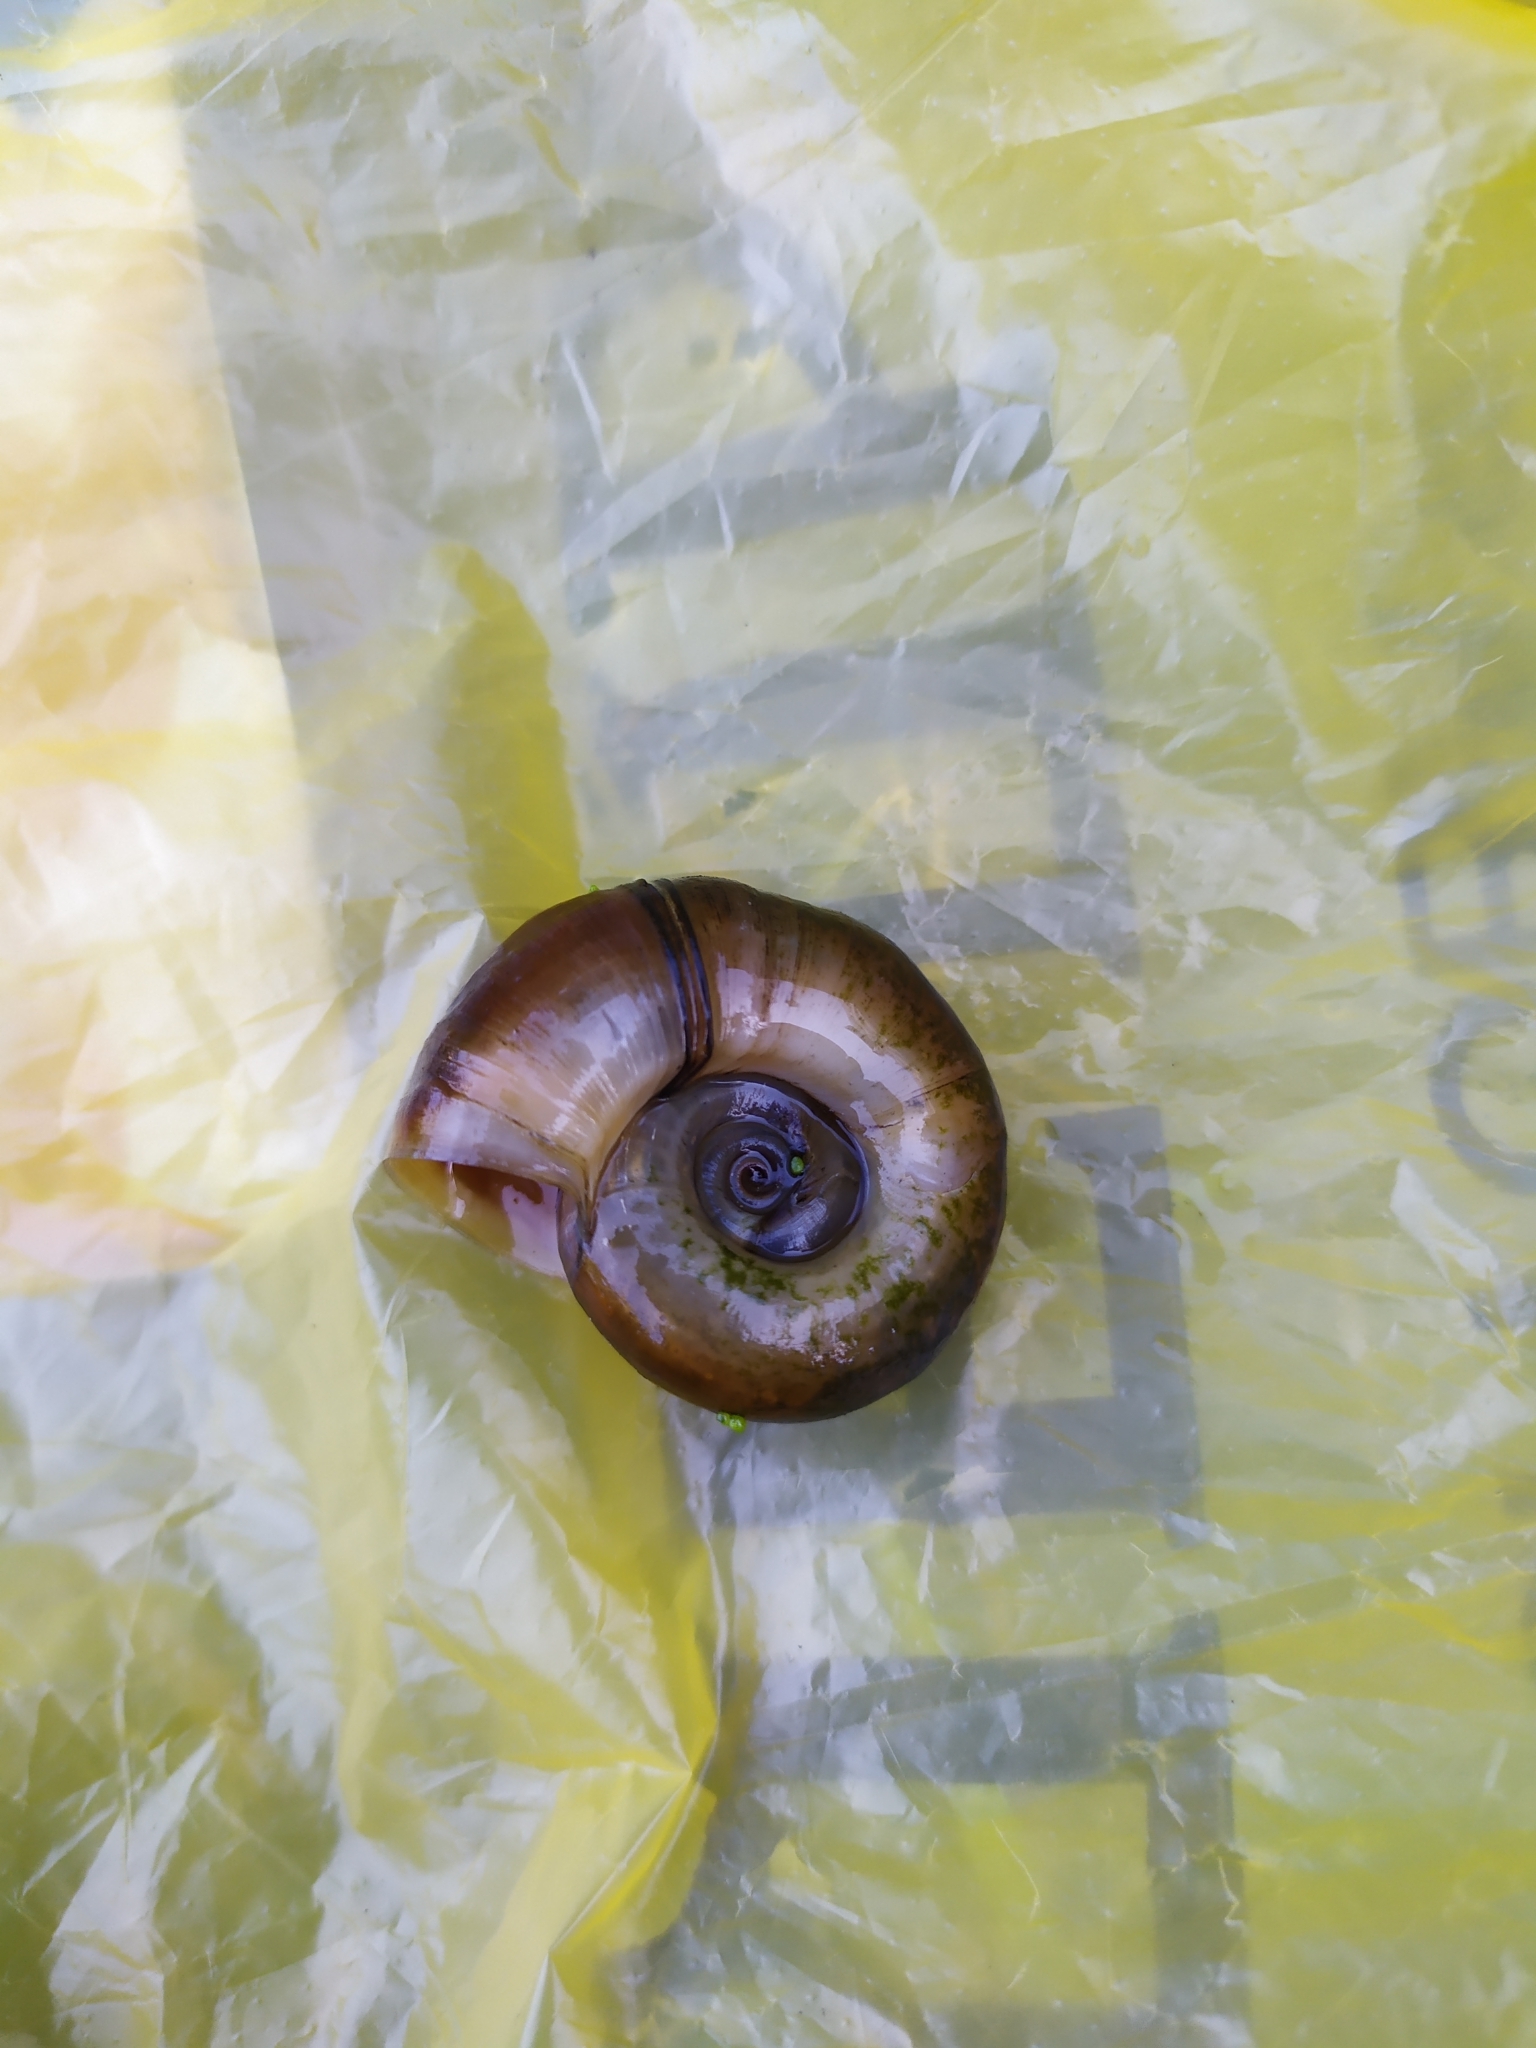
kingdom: Animalia
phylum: Mollusca
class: Gastropoda
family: Planorbidae
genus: Planorbarius
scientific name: Planorbarius corneus
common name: Great ramshorn
